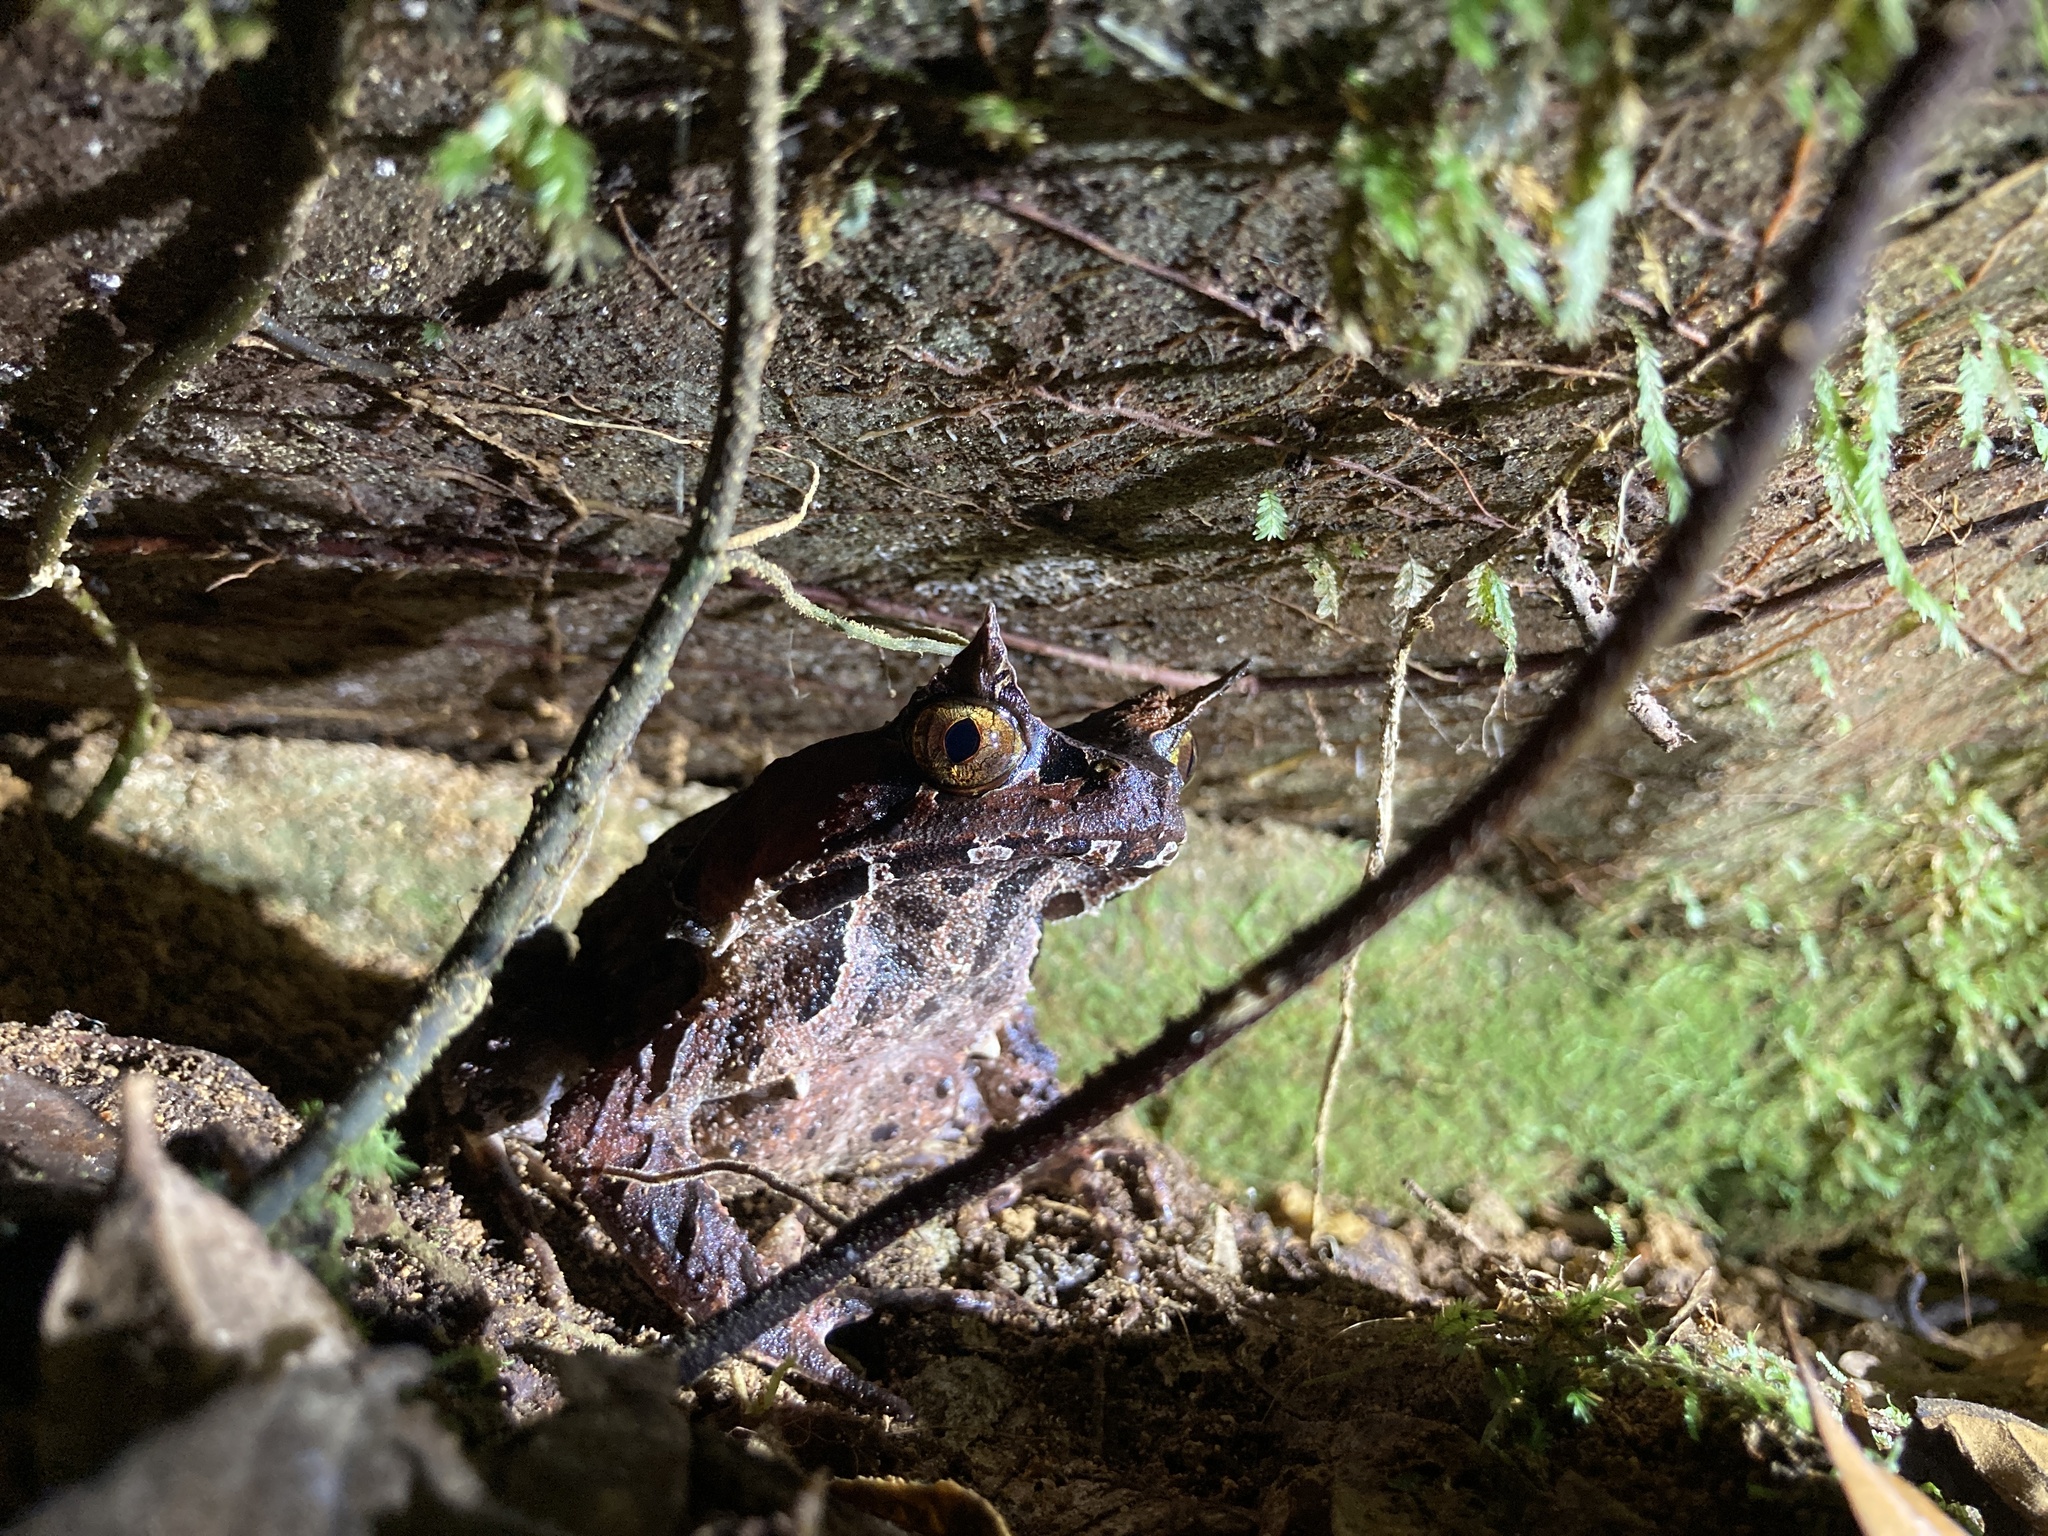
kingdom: Animalia
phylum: Chordata
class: Amphibia
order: Anura
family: Megophryidae
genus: Megophrys
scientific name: Megophrys
